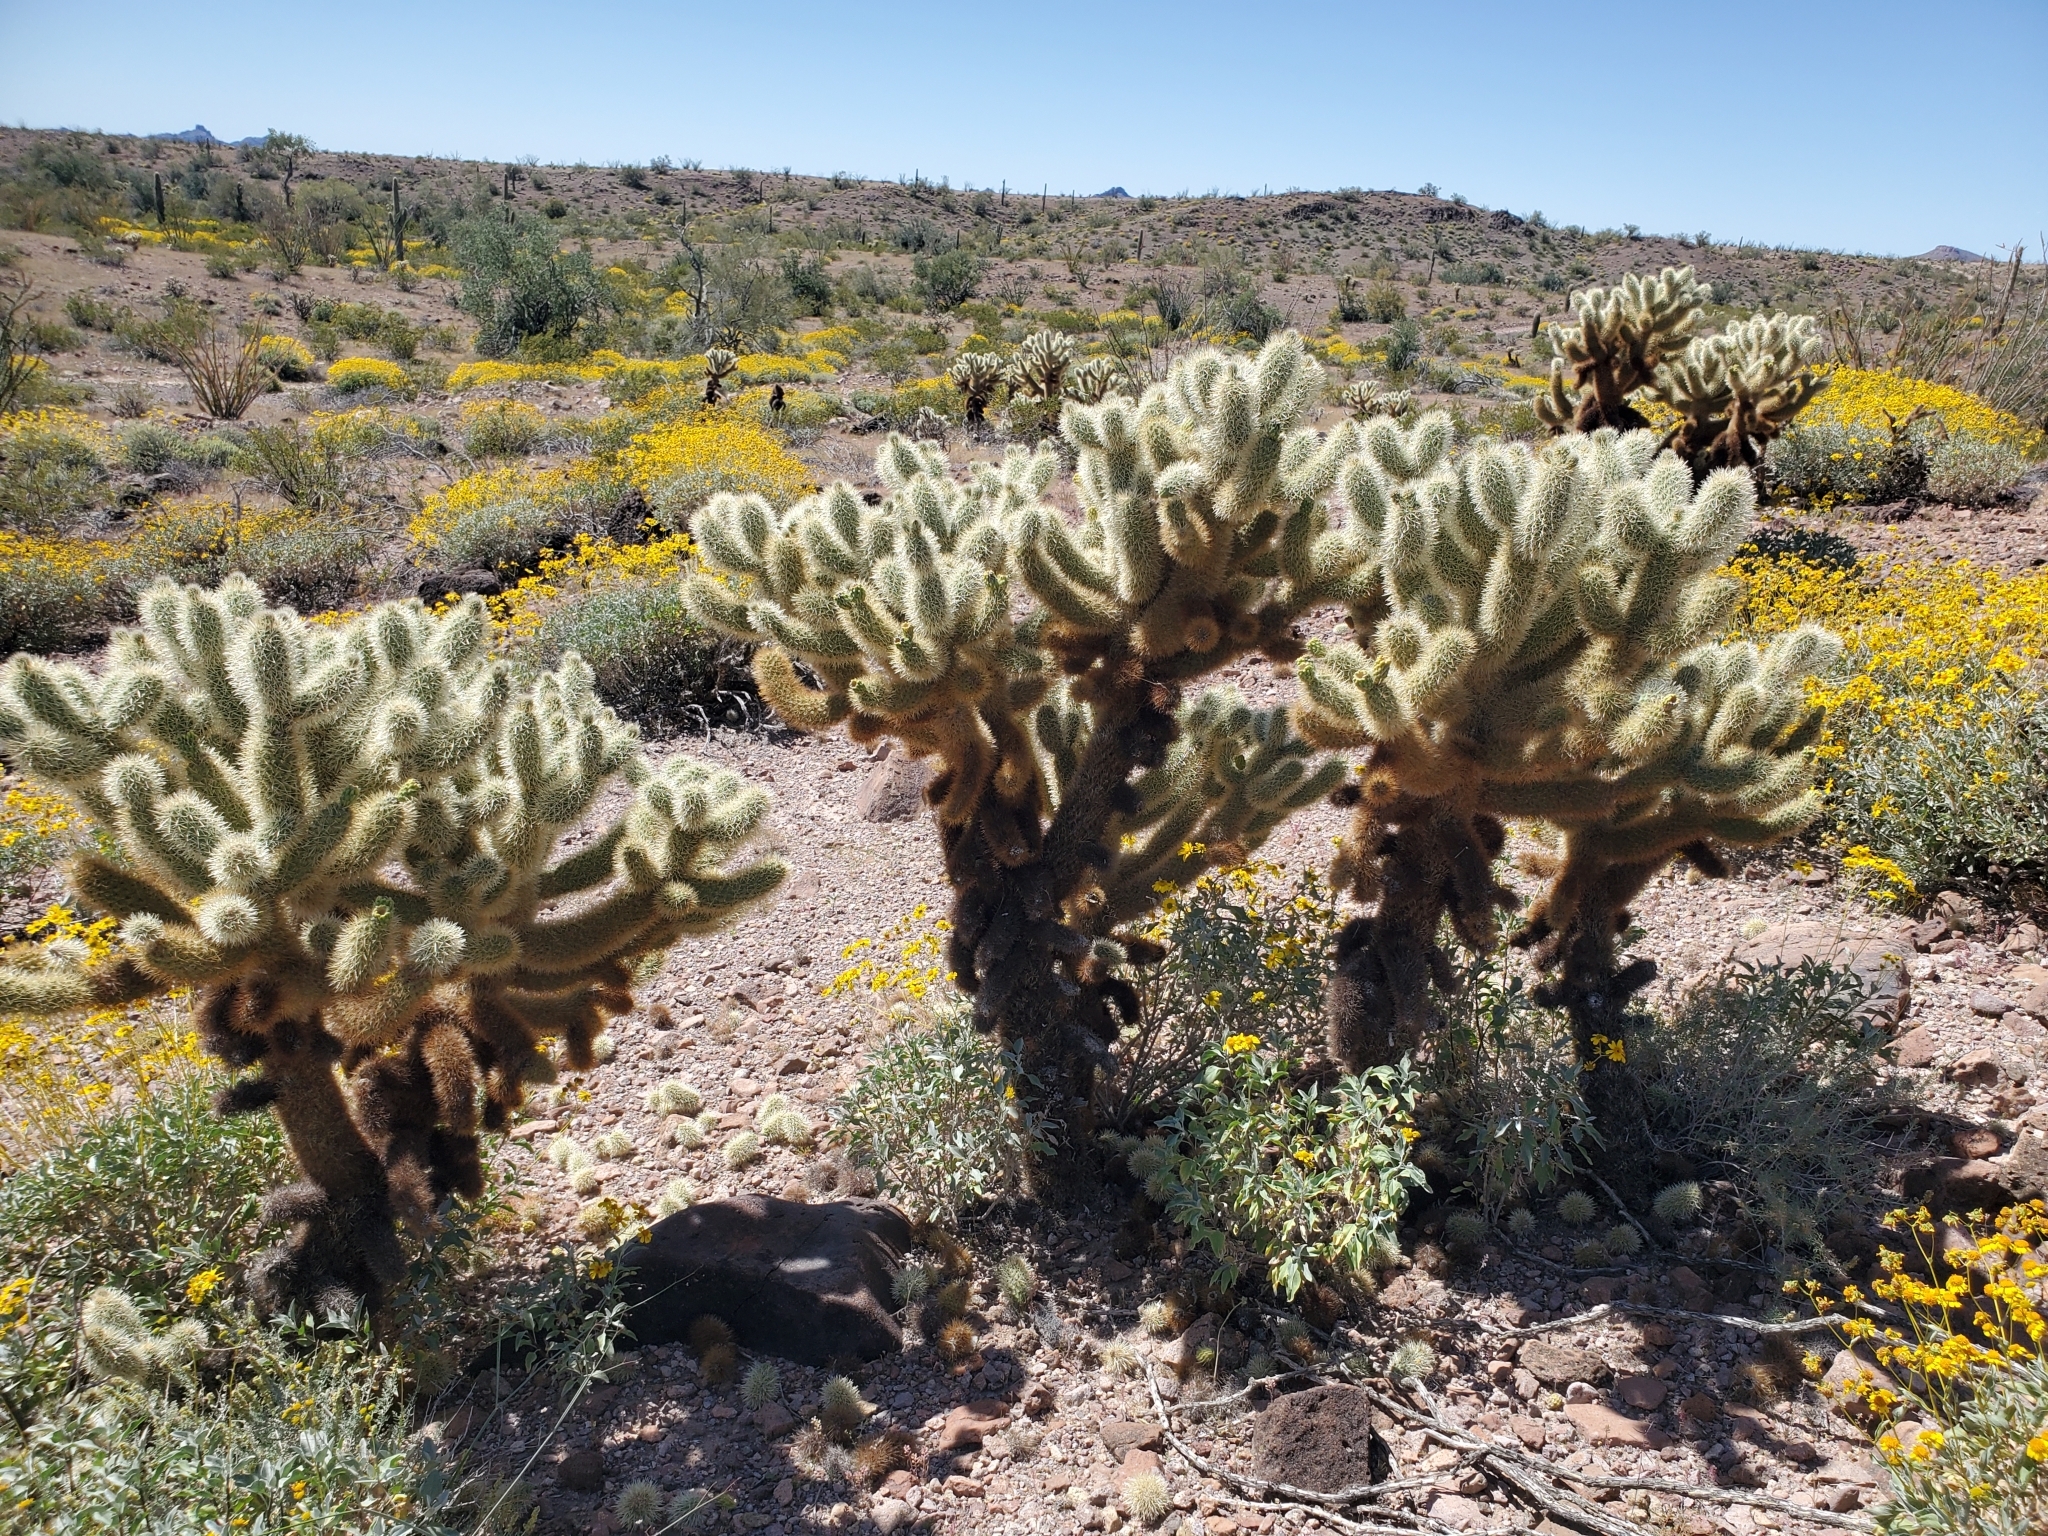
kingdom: Plantae
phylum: Tracheophyta
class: Magnoliopsida
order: Caryophyllales
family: Cactaceae
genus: Cylindropuntia
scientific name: Cylindropuntia fosbergii
